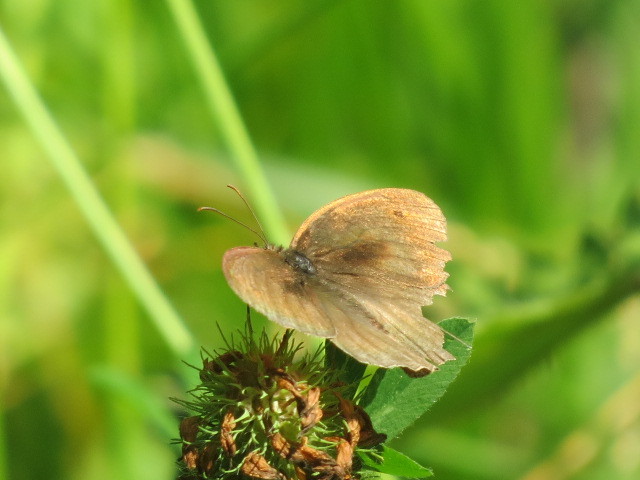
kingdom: Animalia
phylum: Arthropoda
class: Insecta
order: Lepidoptera
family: Nymphalidae
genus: Maniola
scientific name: Maniola jurtina
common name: Meadow brown
